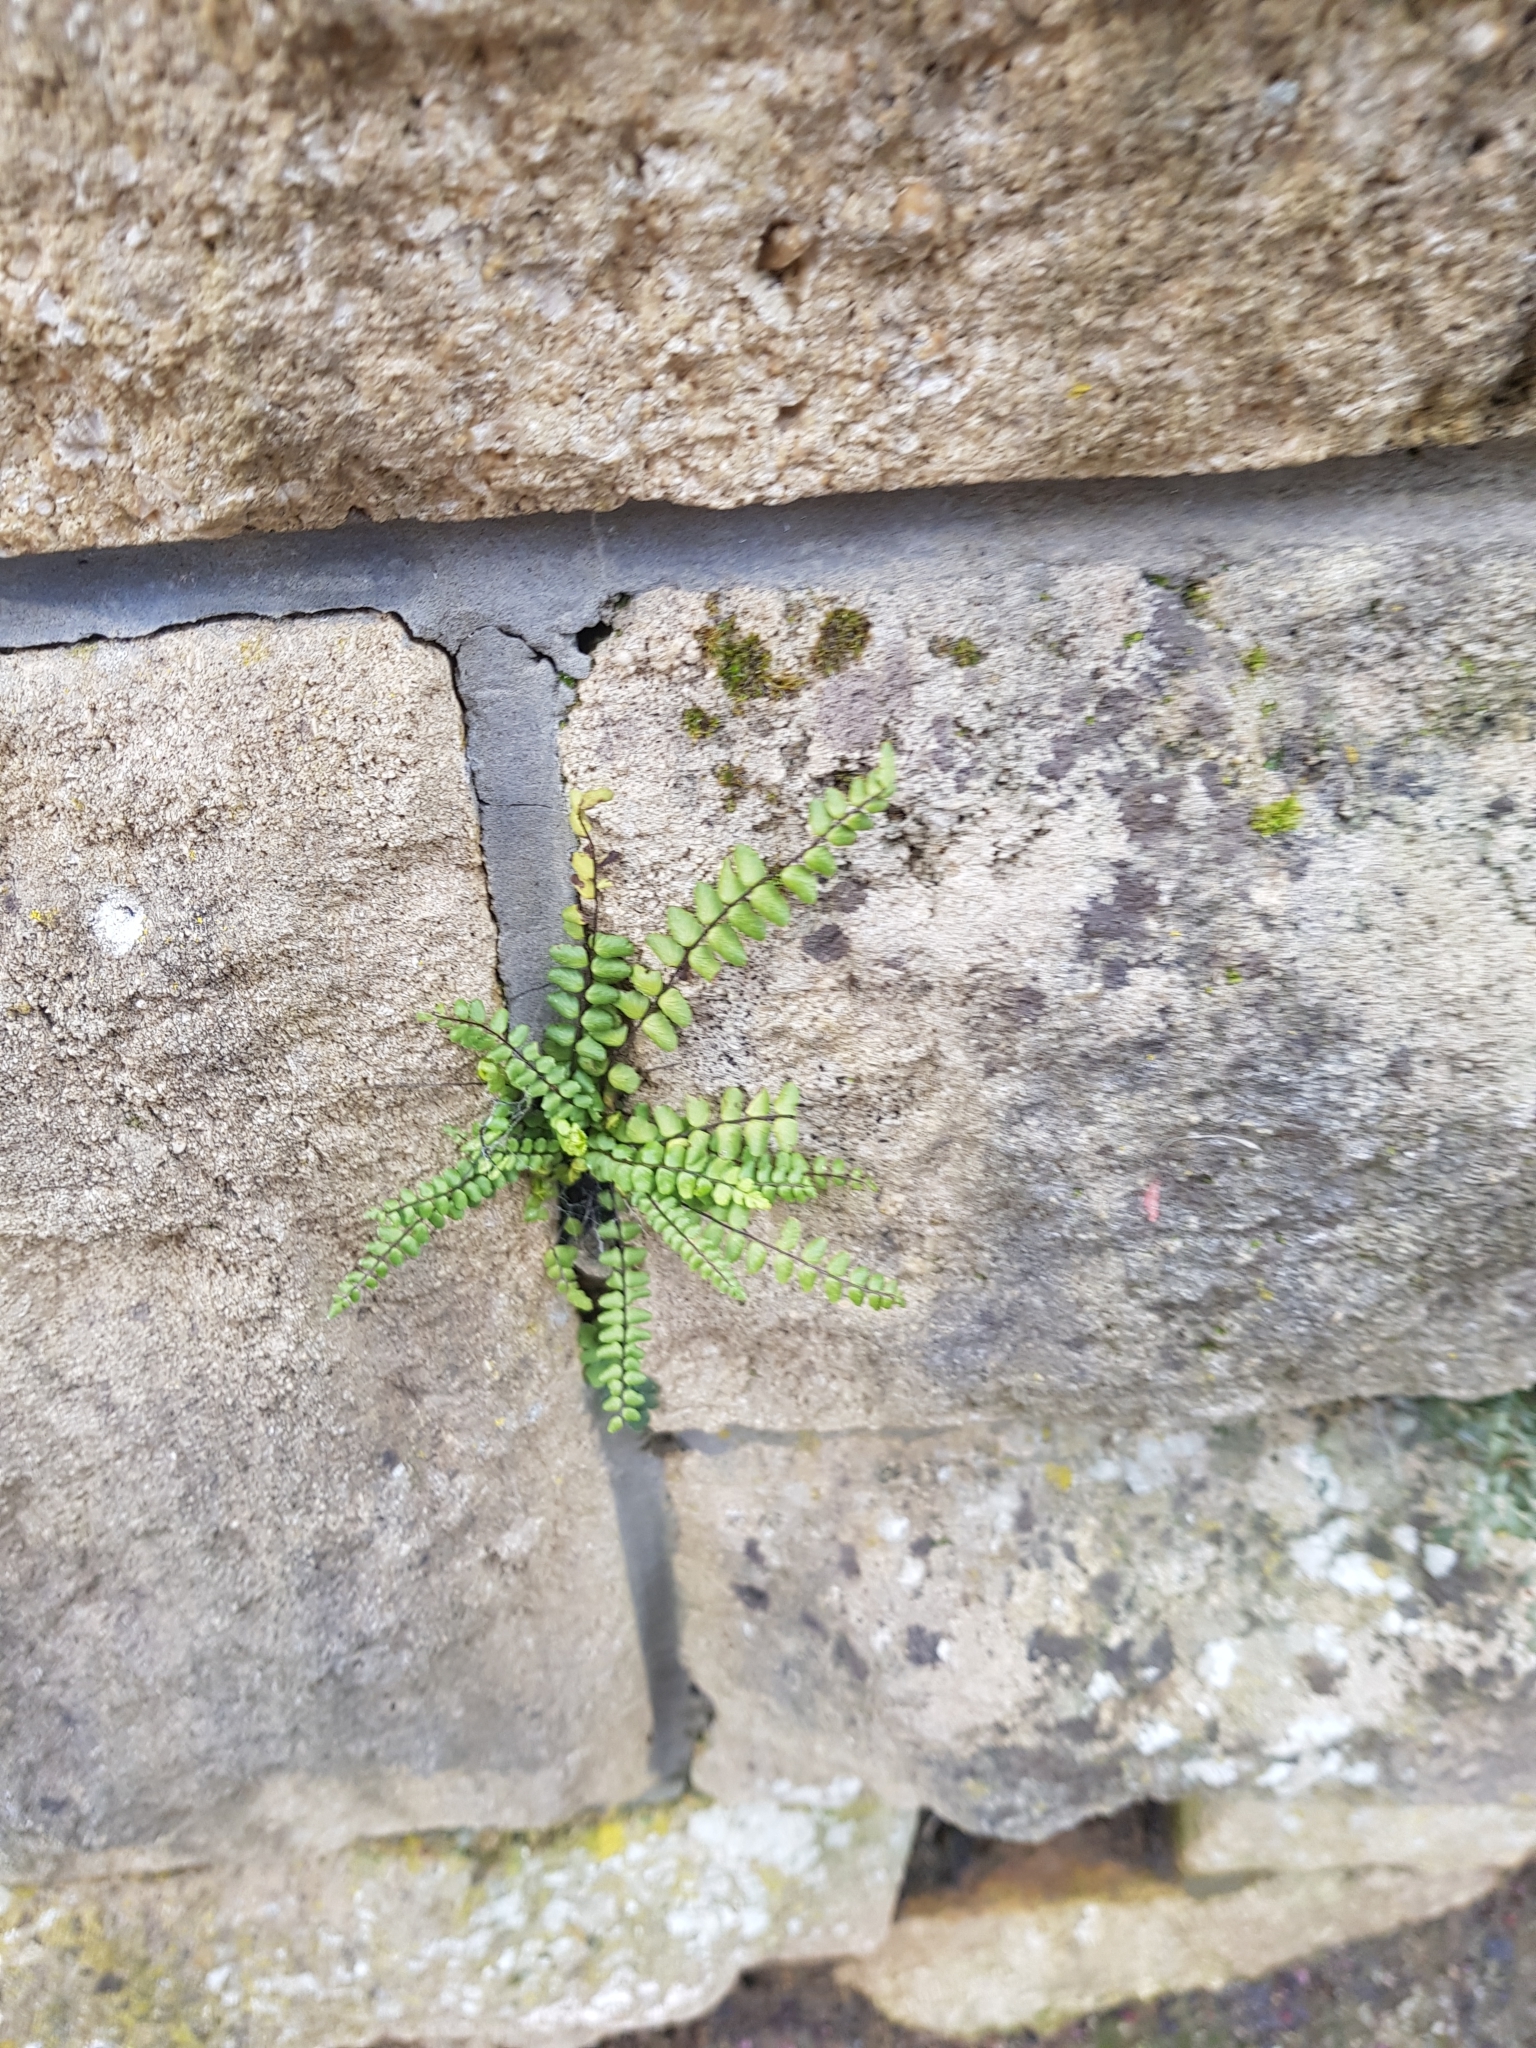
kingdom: Plantae
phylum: Tracheophyta
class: Polypodiopsida
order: Polypodiales
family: Aspleniaceae
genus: Asplenium
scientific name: Asplenium trichomanes
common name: Maidenhair spleenwort
